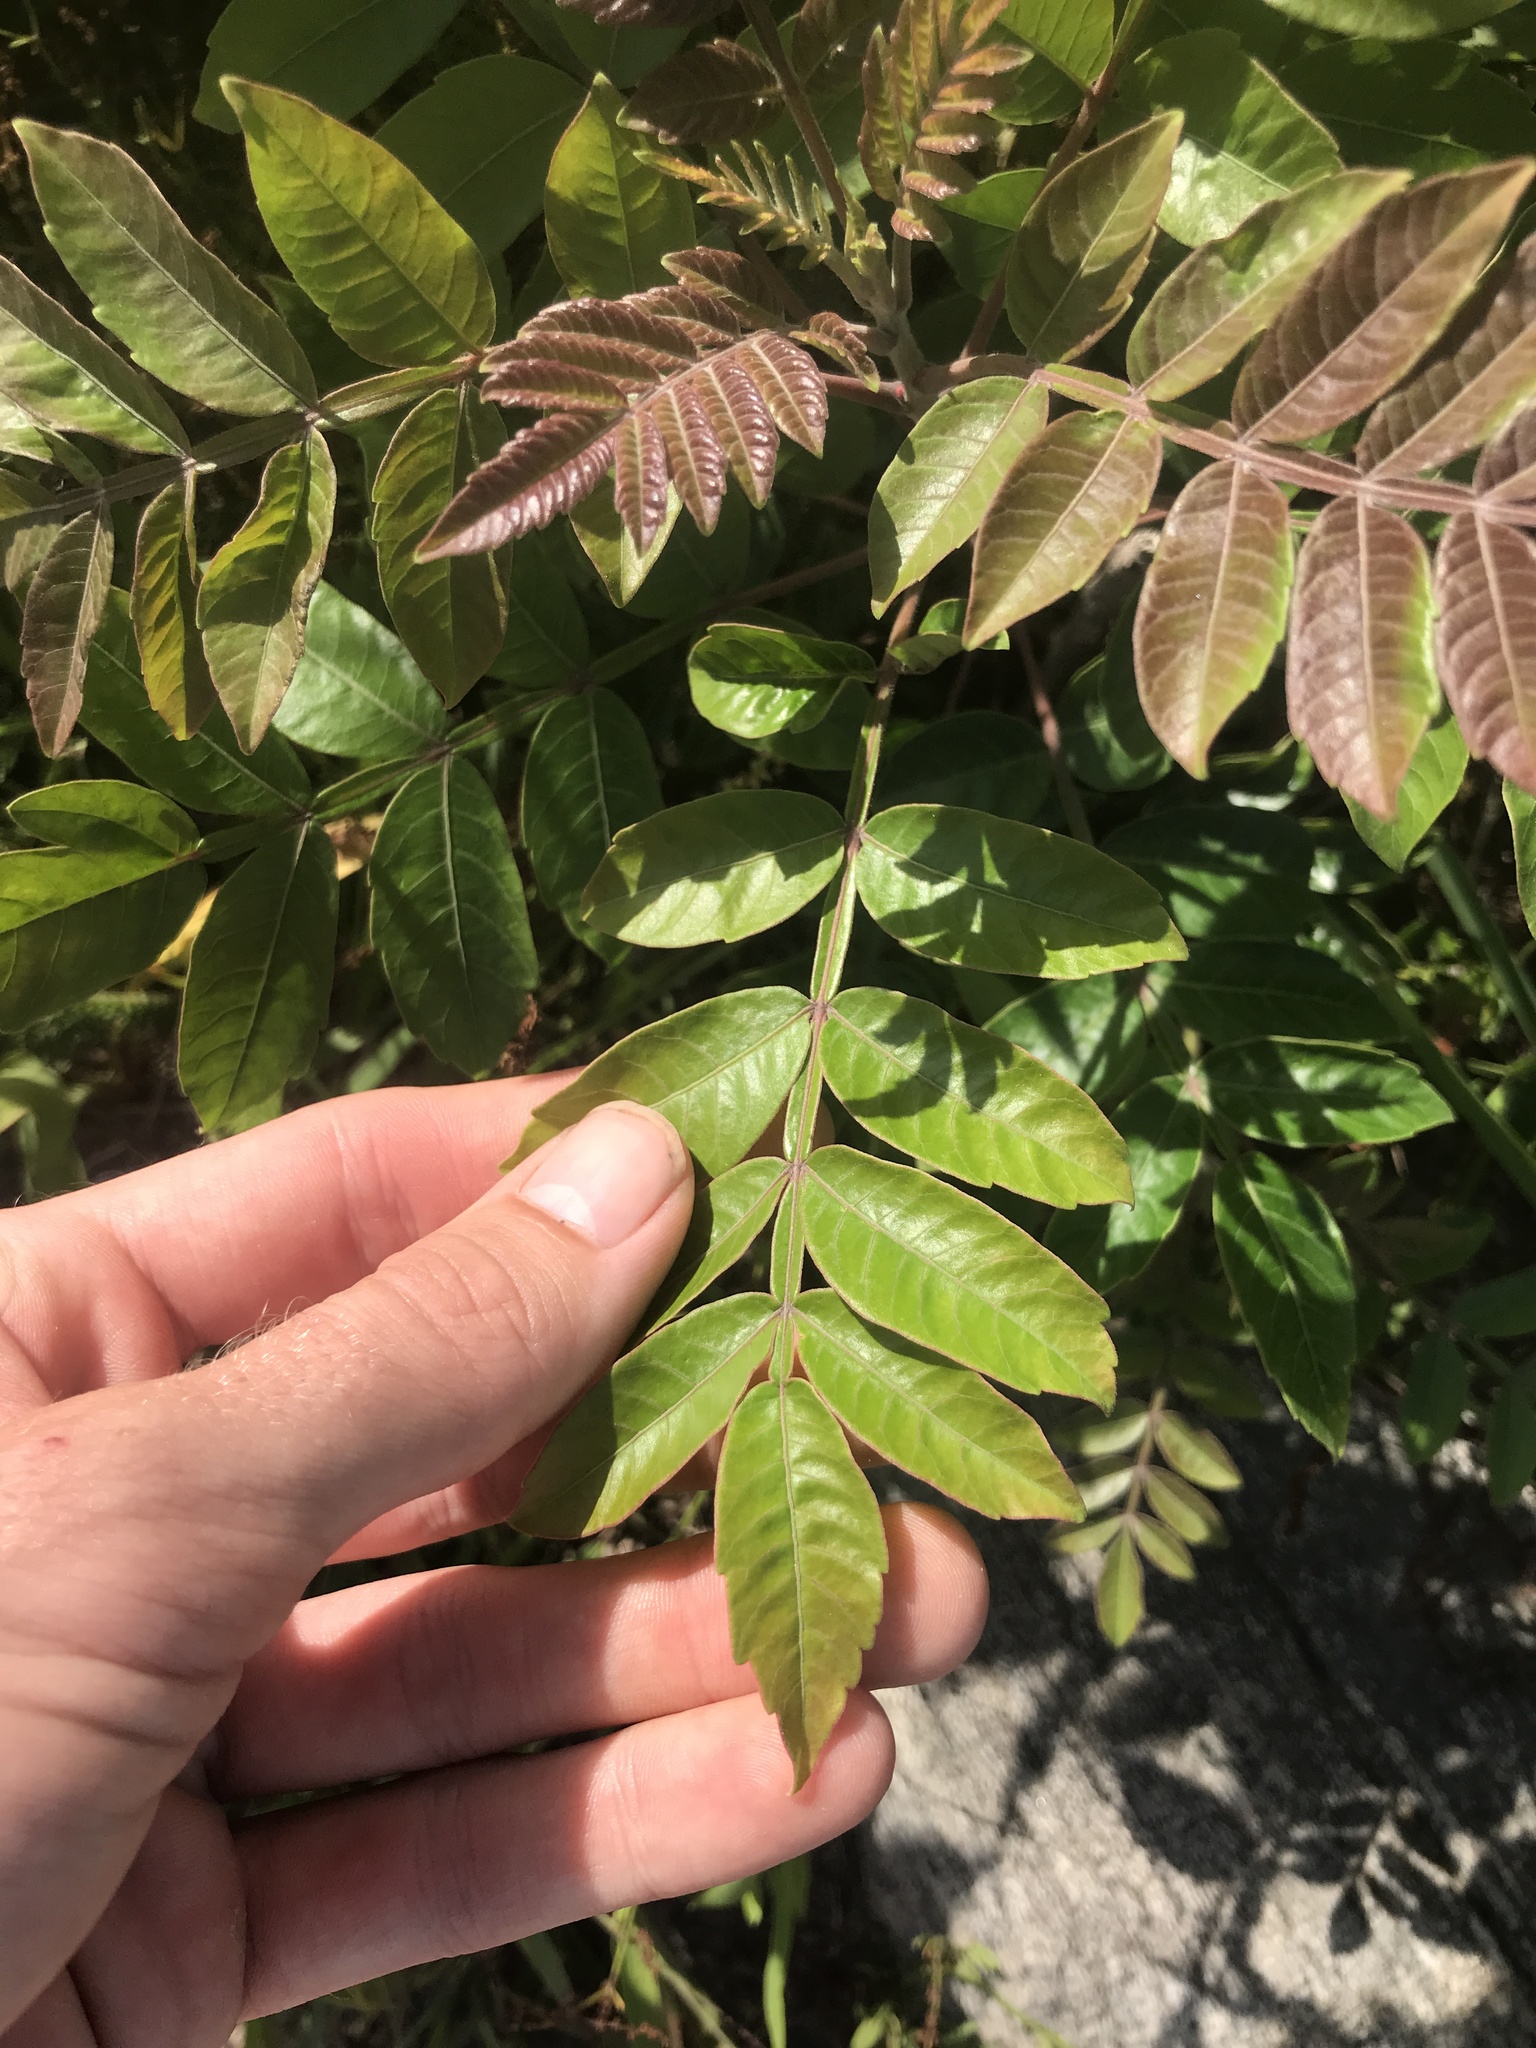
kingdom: Plantae
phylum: Tracheophyta
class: Magnoliopsida
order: Sapindales
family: Anacardiaceae
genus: Rhus
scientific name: Rhus copallina
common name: Shining sumac
